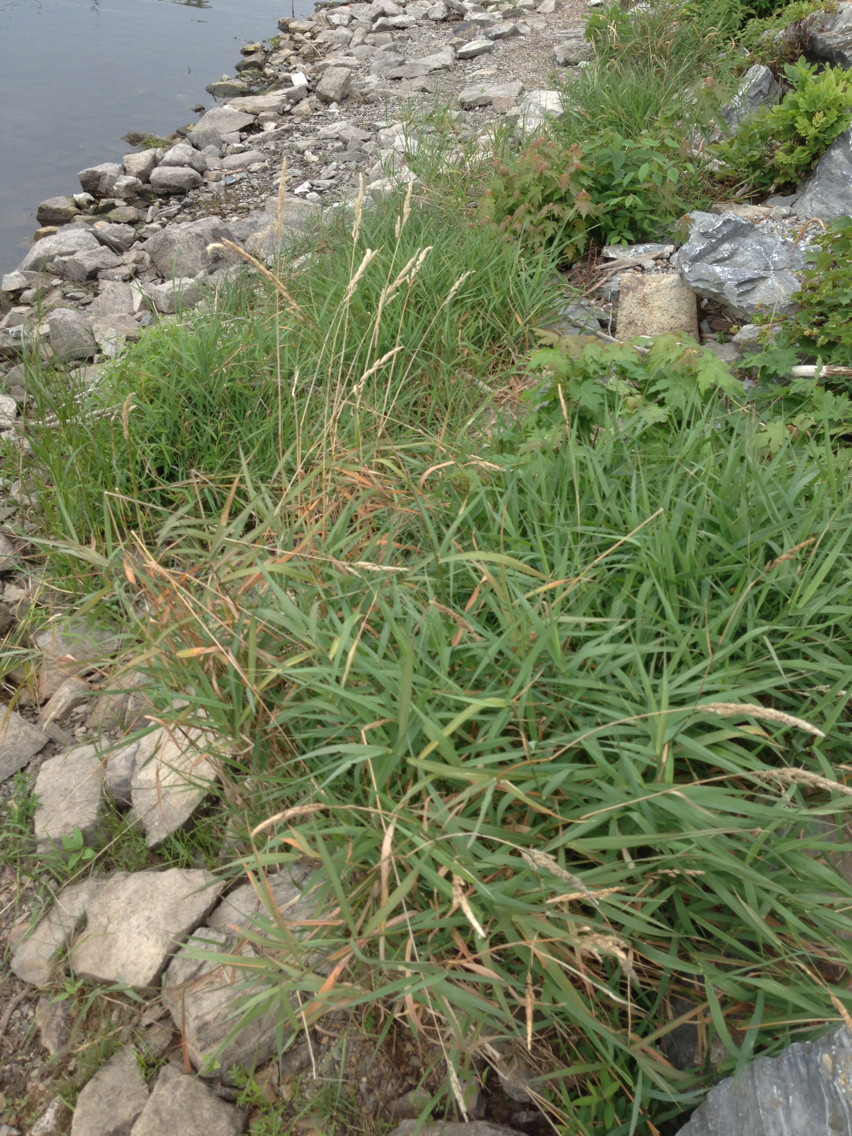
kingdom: Plantae
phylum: Tracheophyta
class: Liliopsida
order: Poales
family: Poaceae
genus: Phalaris
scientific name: Phalaris arundinacea
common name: Reed canary-grass
